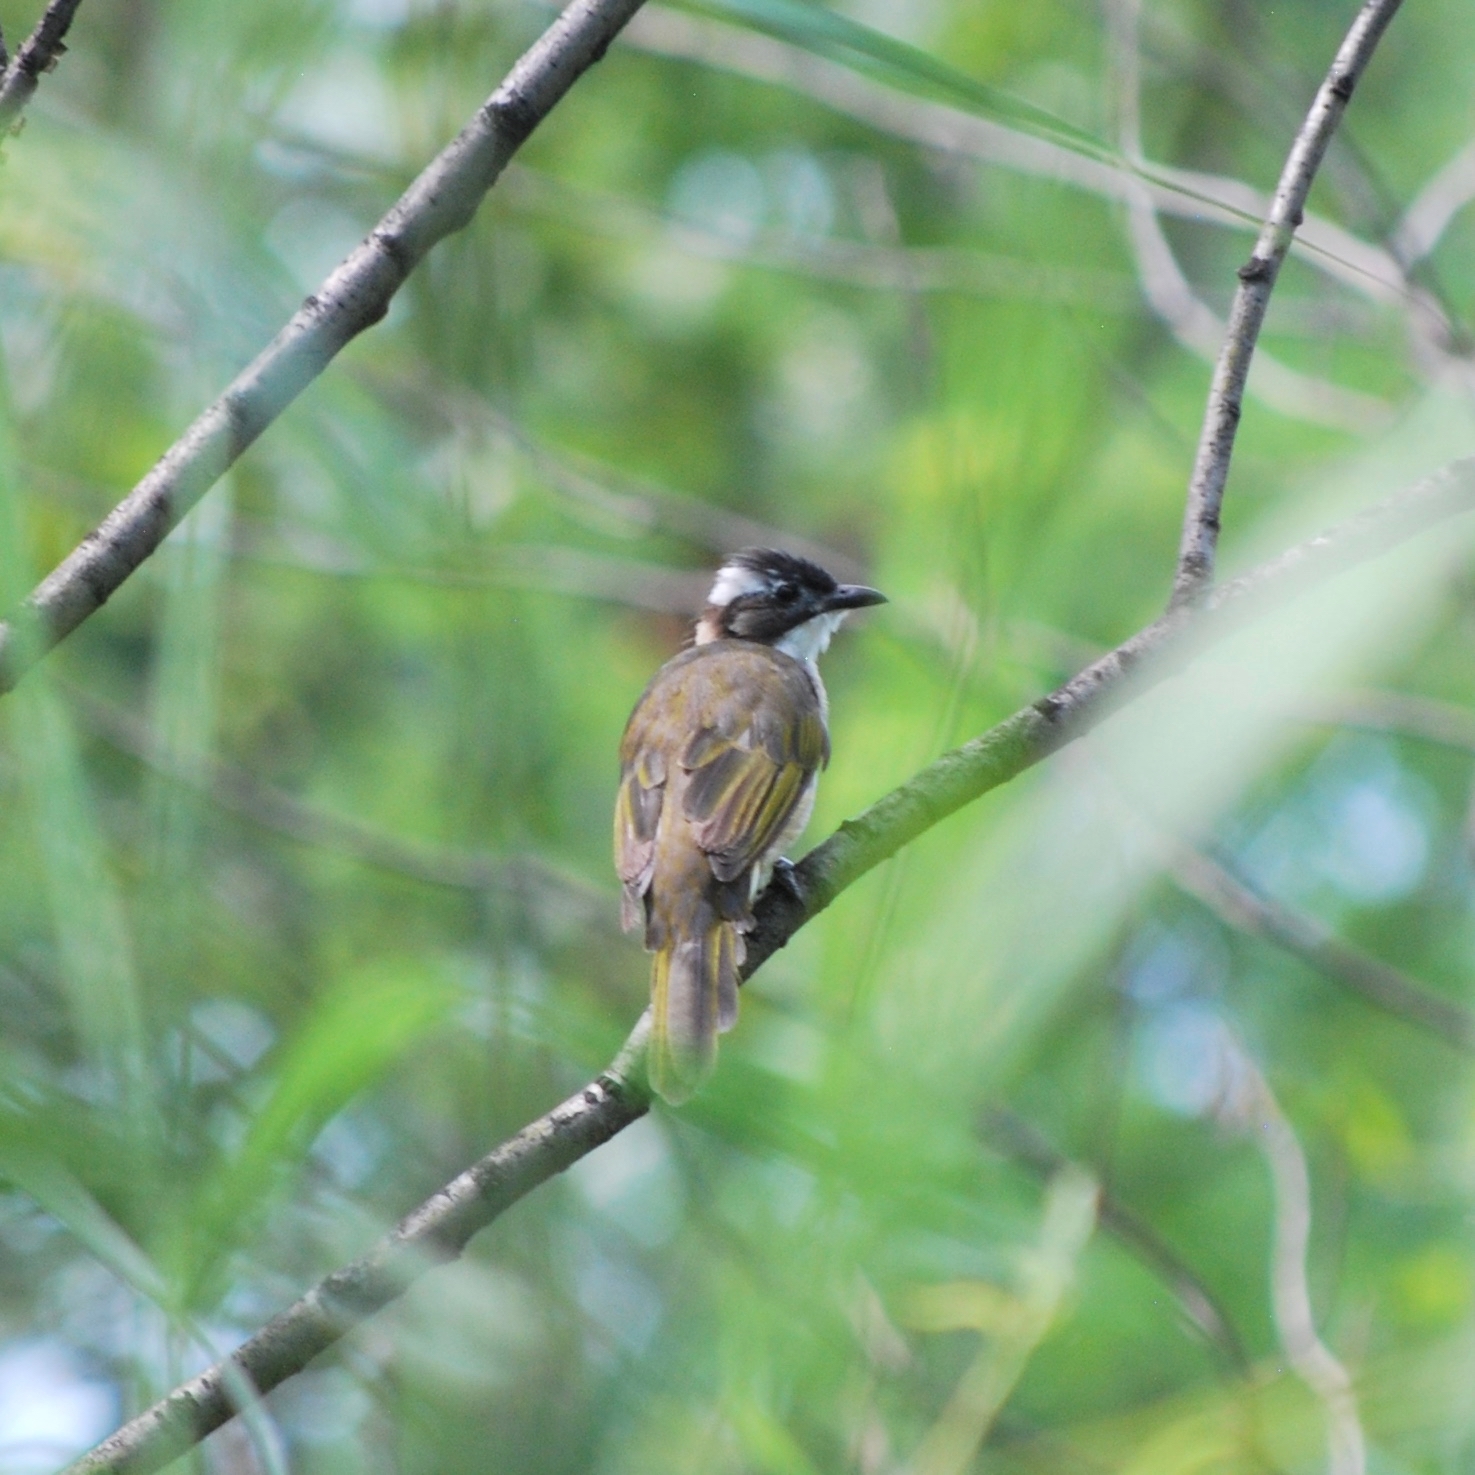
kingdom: Animalia
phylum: Chordata
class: Aves
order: Passeriformes
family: Pycnonotidae
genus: Pycnonotus
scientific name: Pycnonotus sinensis
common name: Light-vented bulbul
